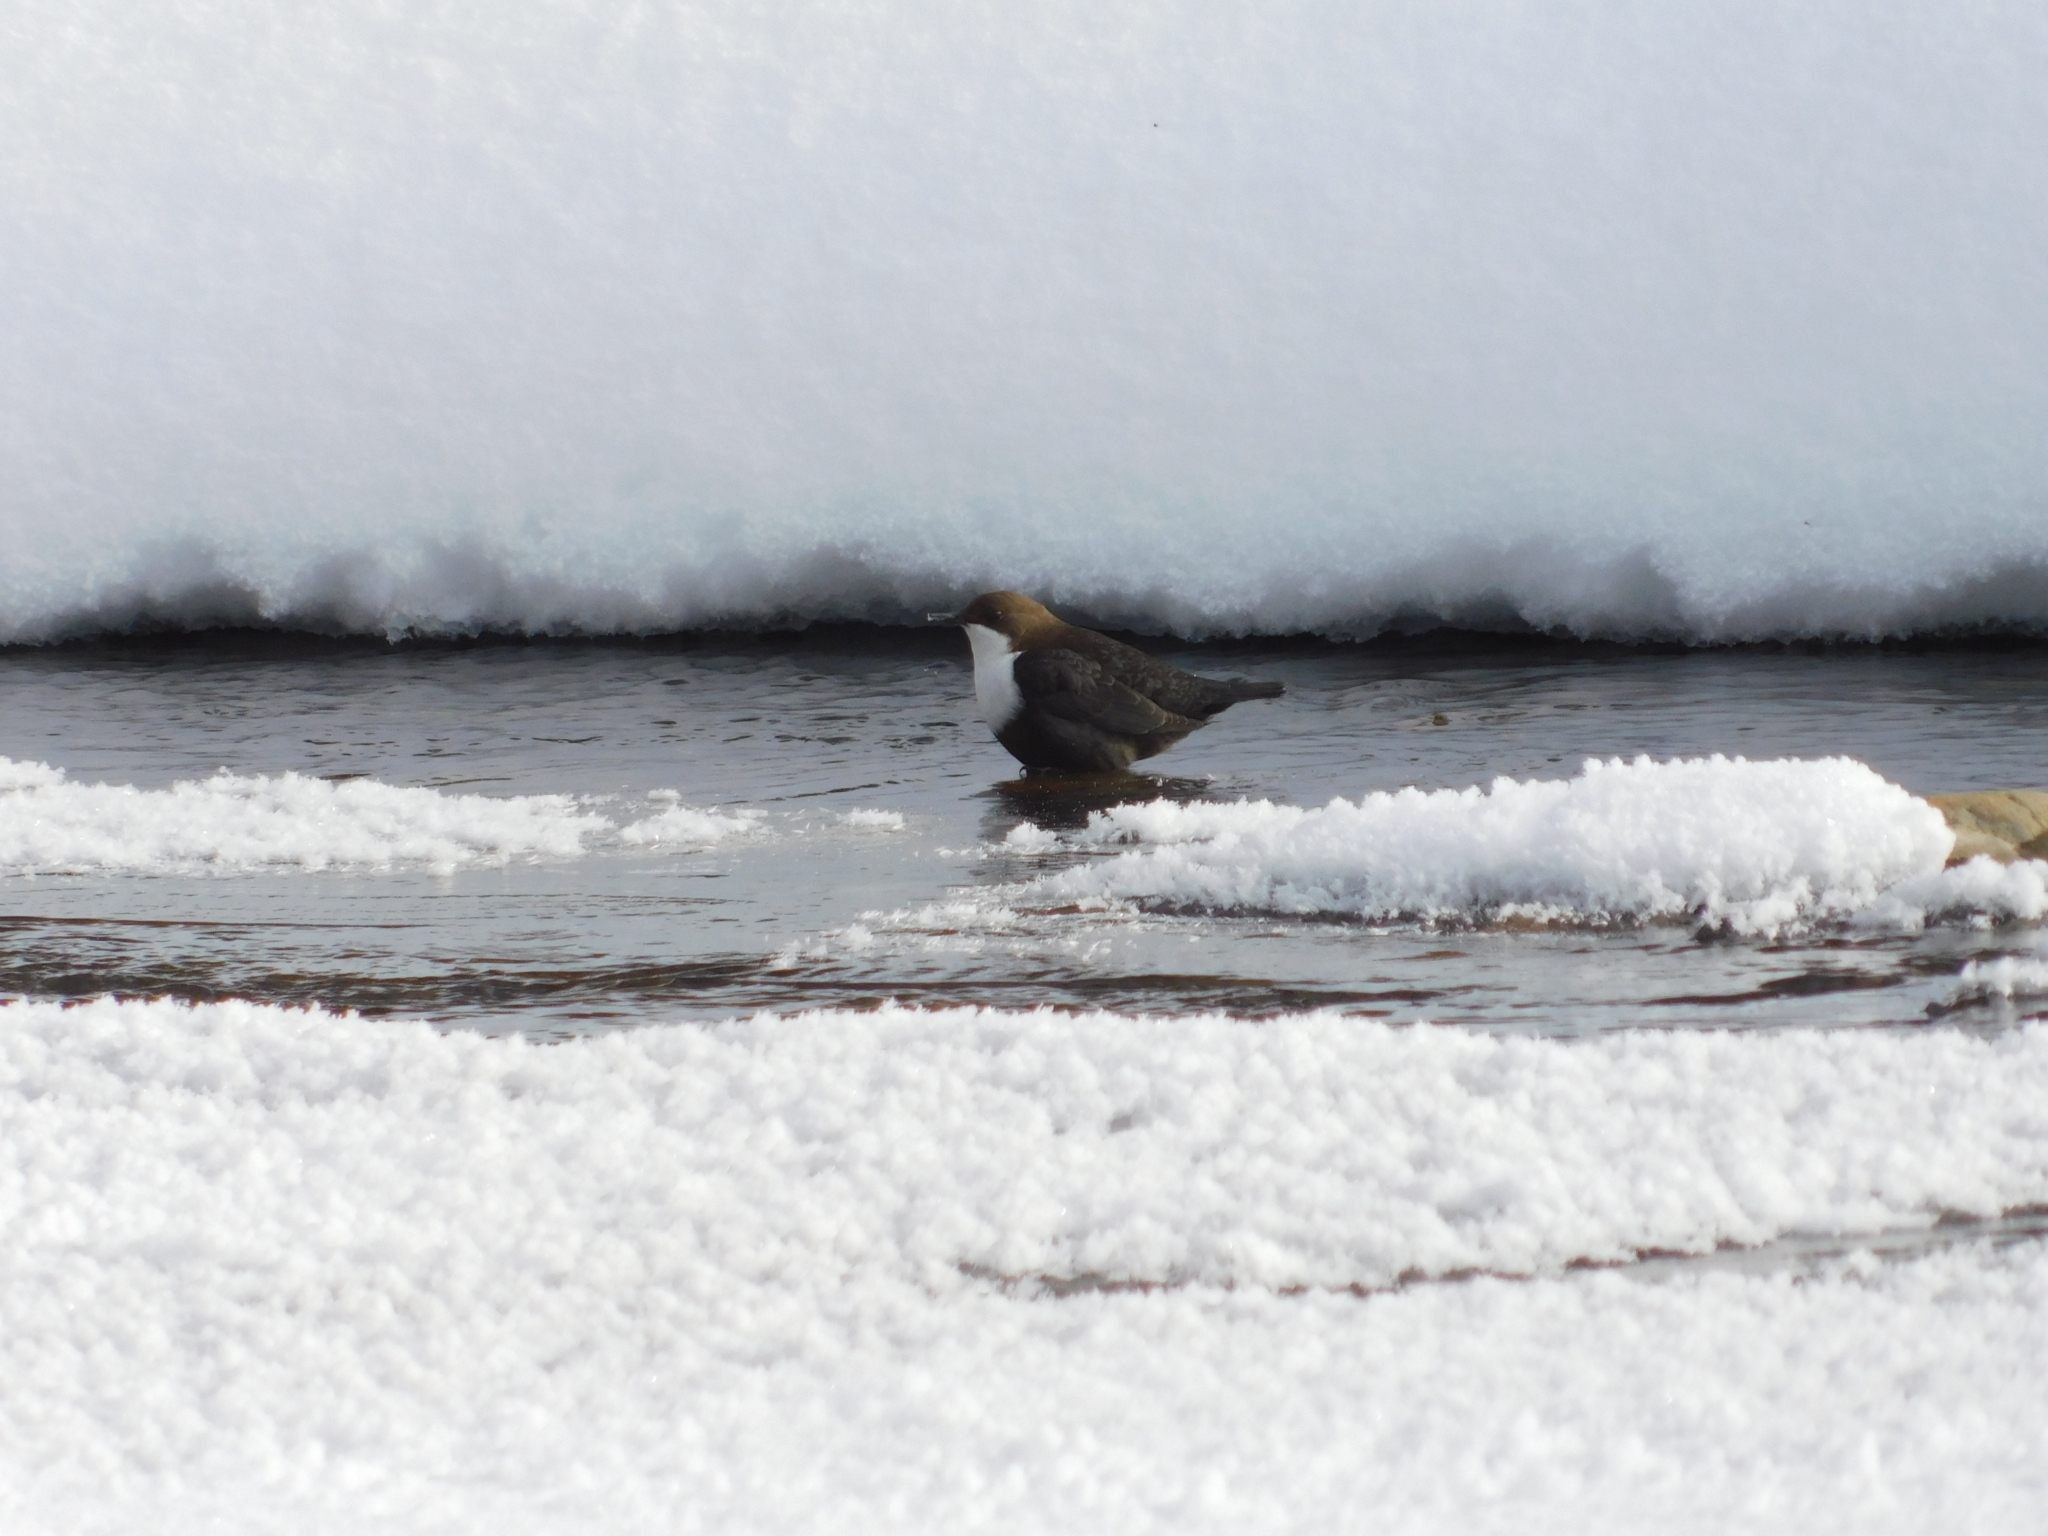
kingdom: Animalia
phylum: Chordata
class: Aves
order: Passeriformes
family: Cinclidae
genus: Cinclus
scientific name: Cinclus cinclus
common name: White-throated dipper
